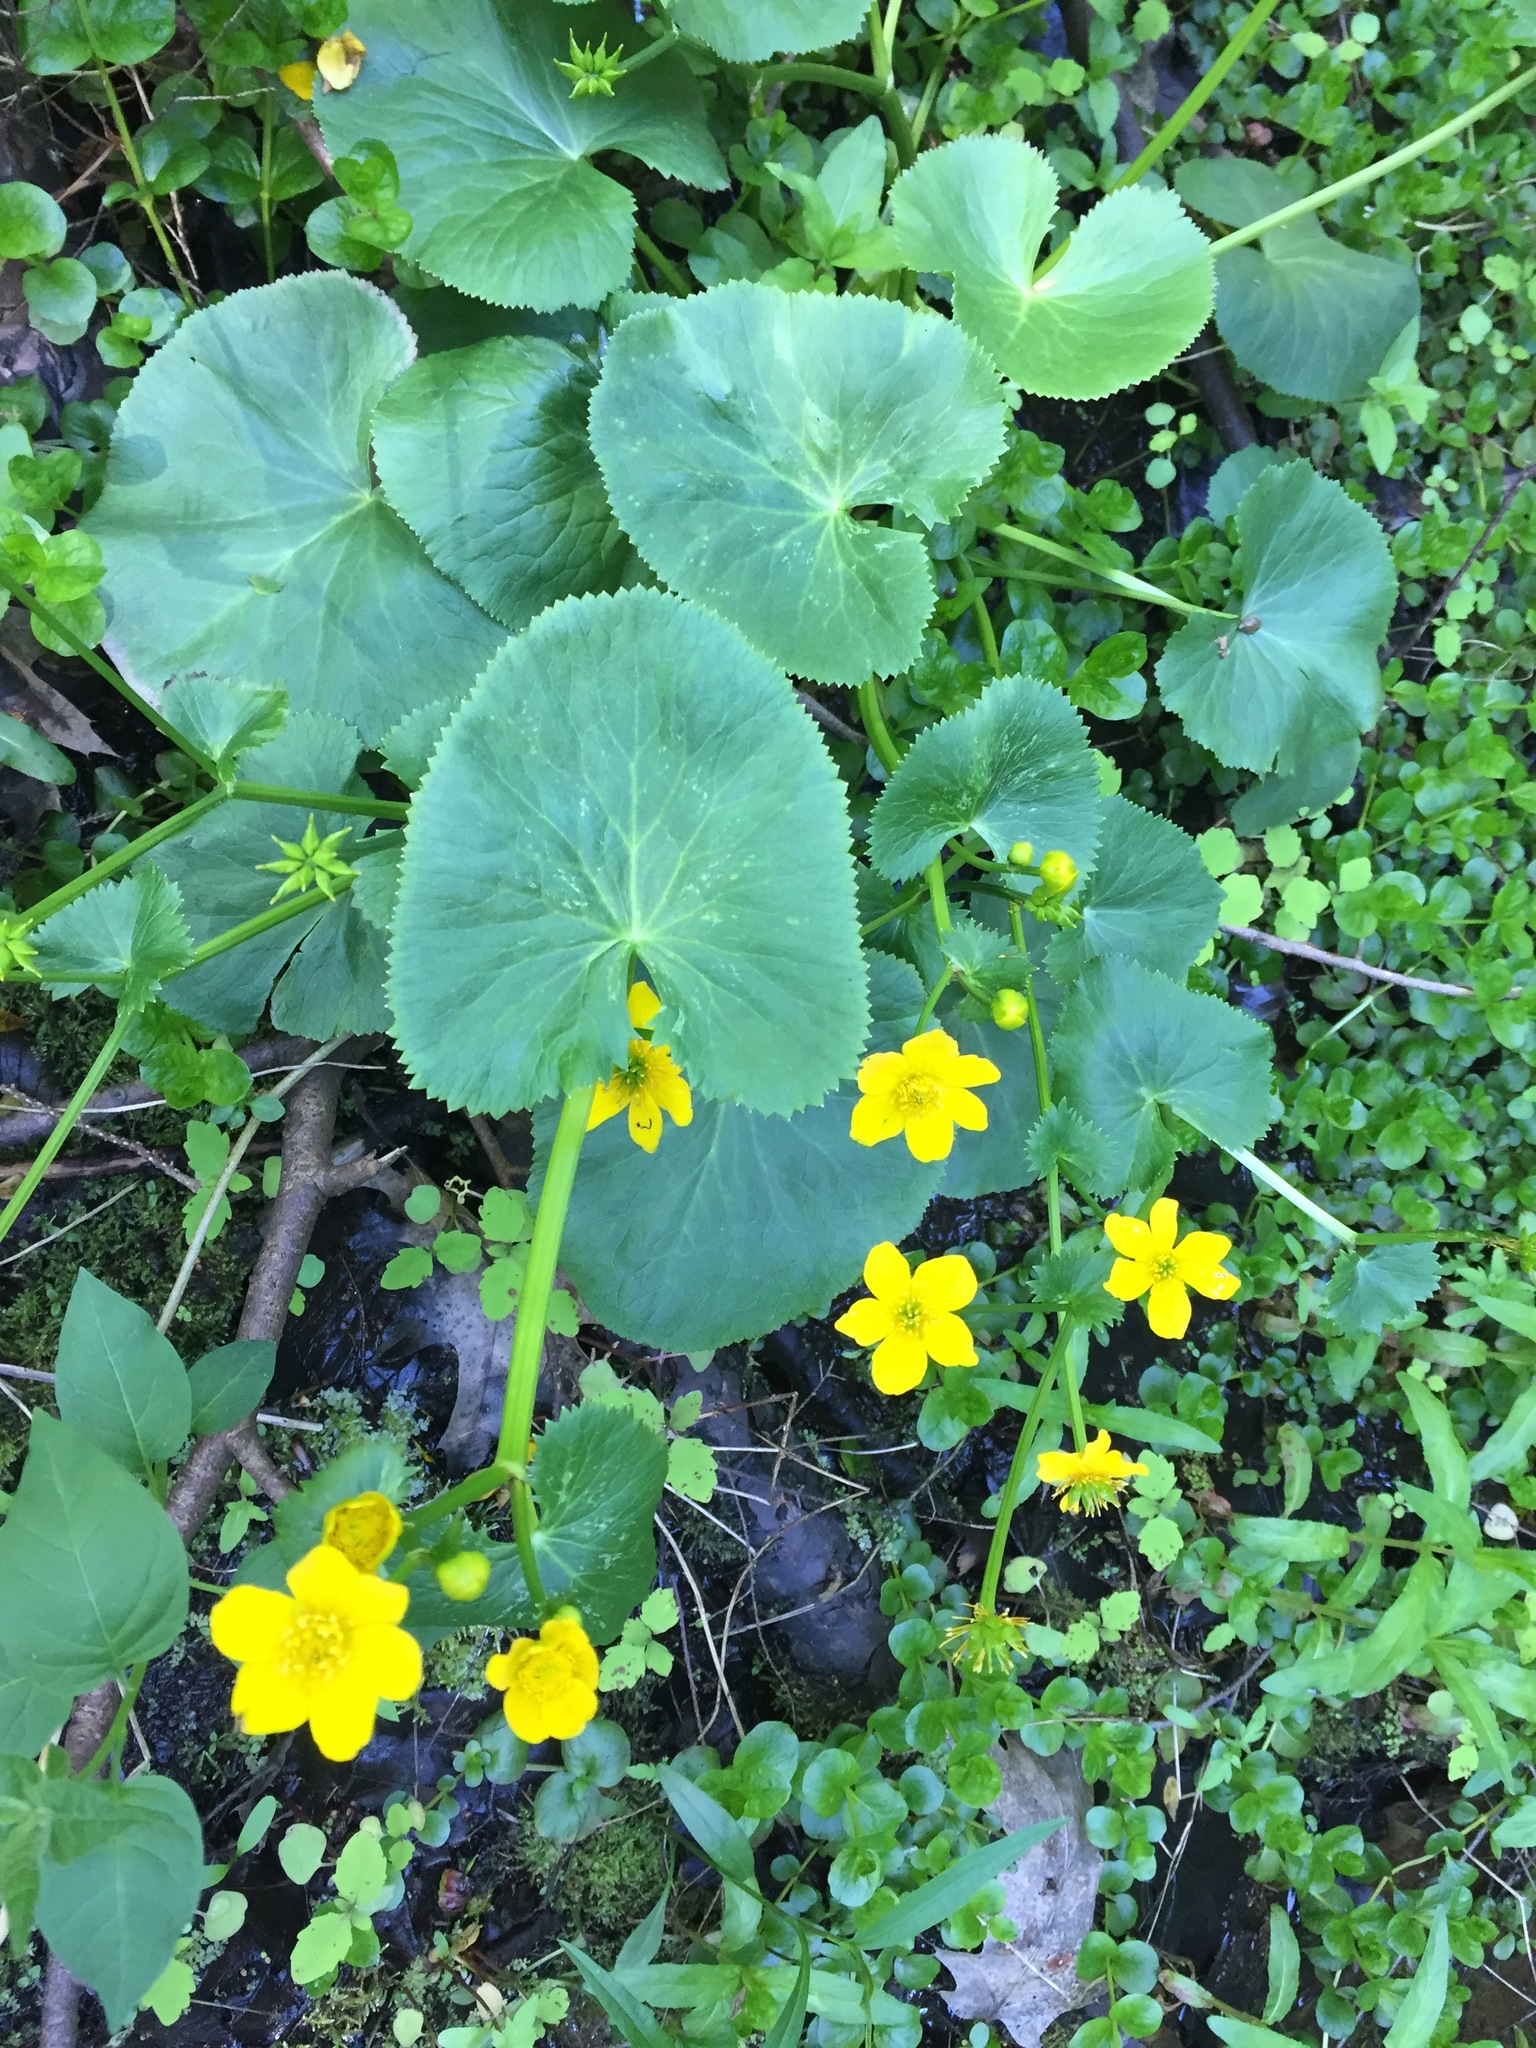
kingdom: Plantae
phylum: Tracheophyta
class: Magnoliopsida
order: Ranunculales
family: Ranunculaceae
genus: Caltha
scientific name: Caltha palustris
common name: Marsh marigold
